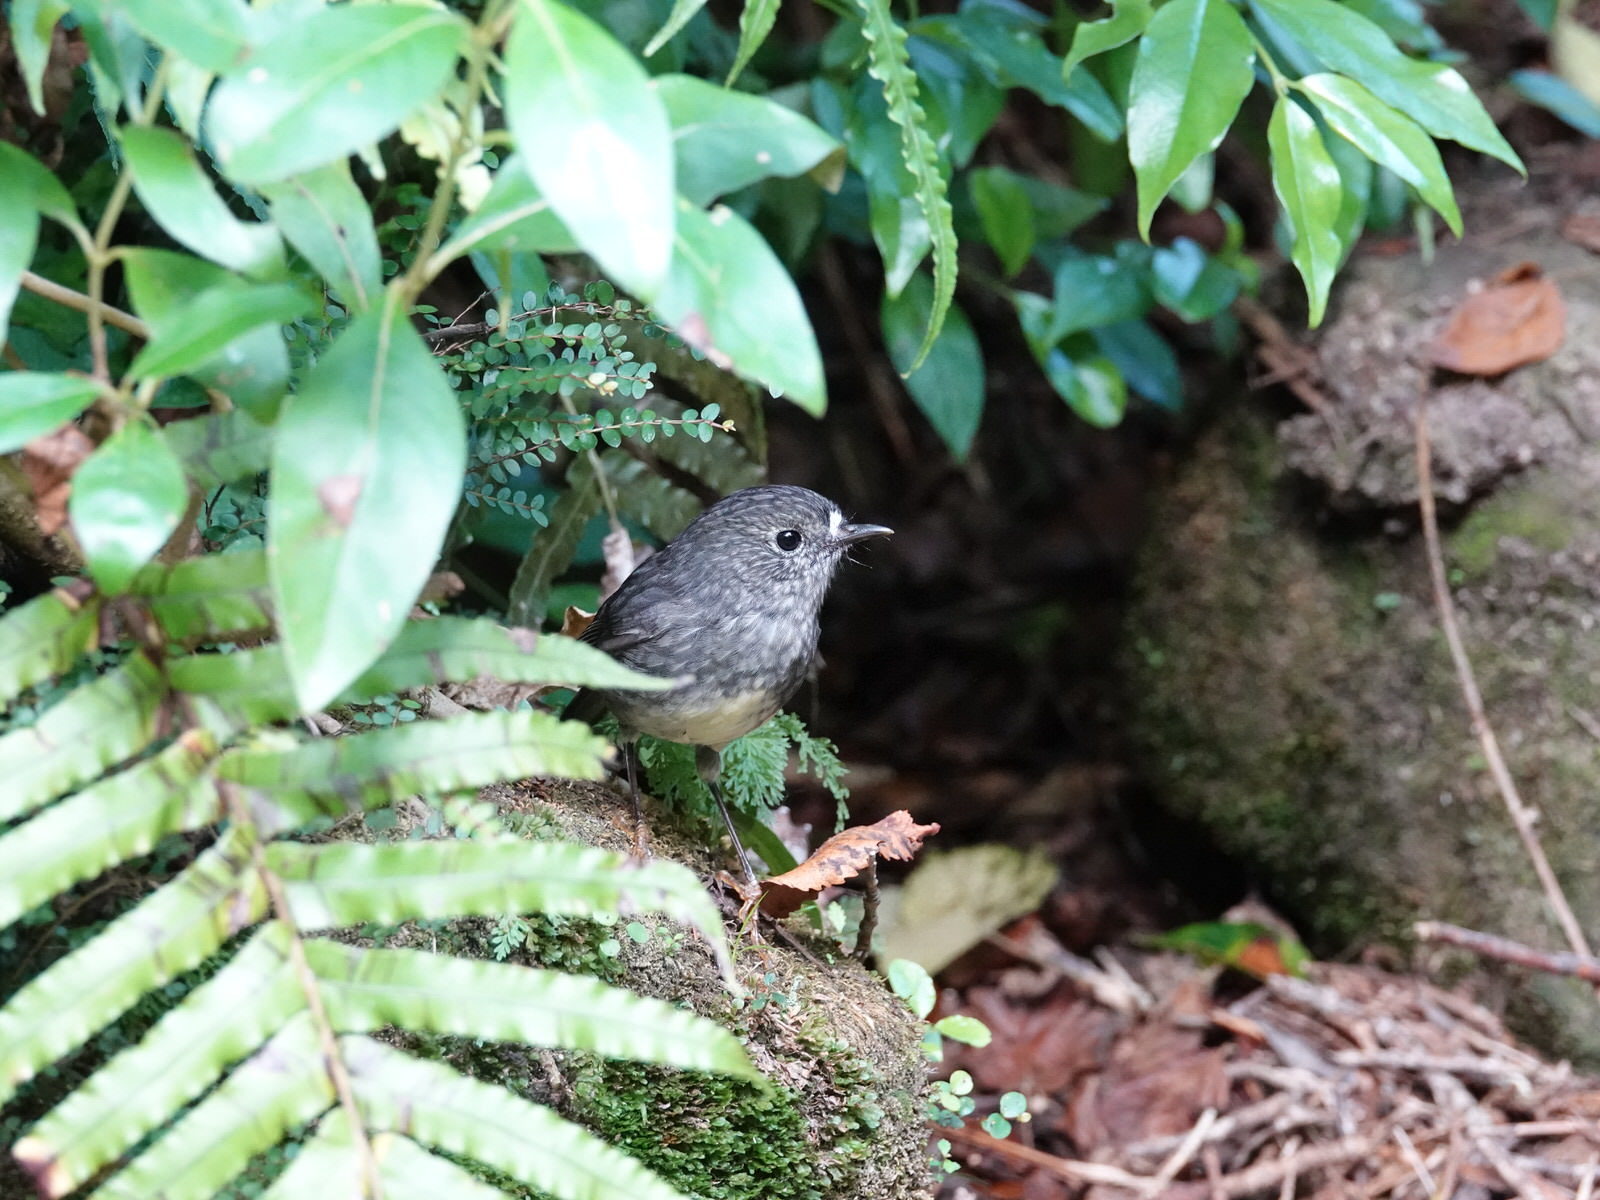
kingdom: Animalia
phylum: Chordata
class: Aves
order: Passeriformes
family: Petroicidae
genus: Petroica
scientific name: Petroica australis
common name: New zealand robin
